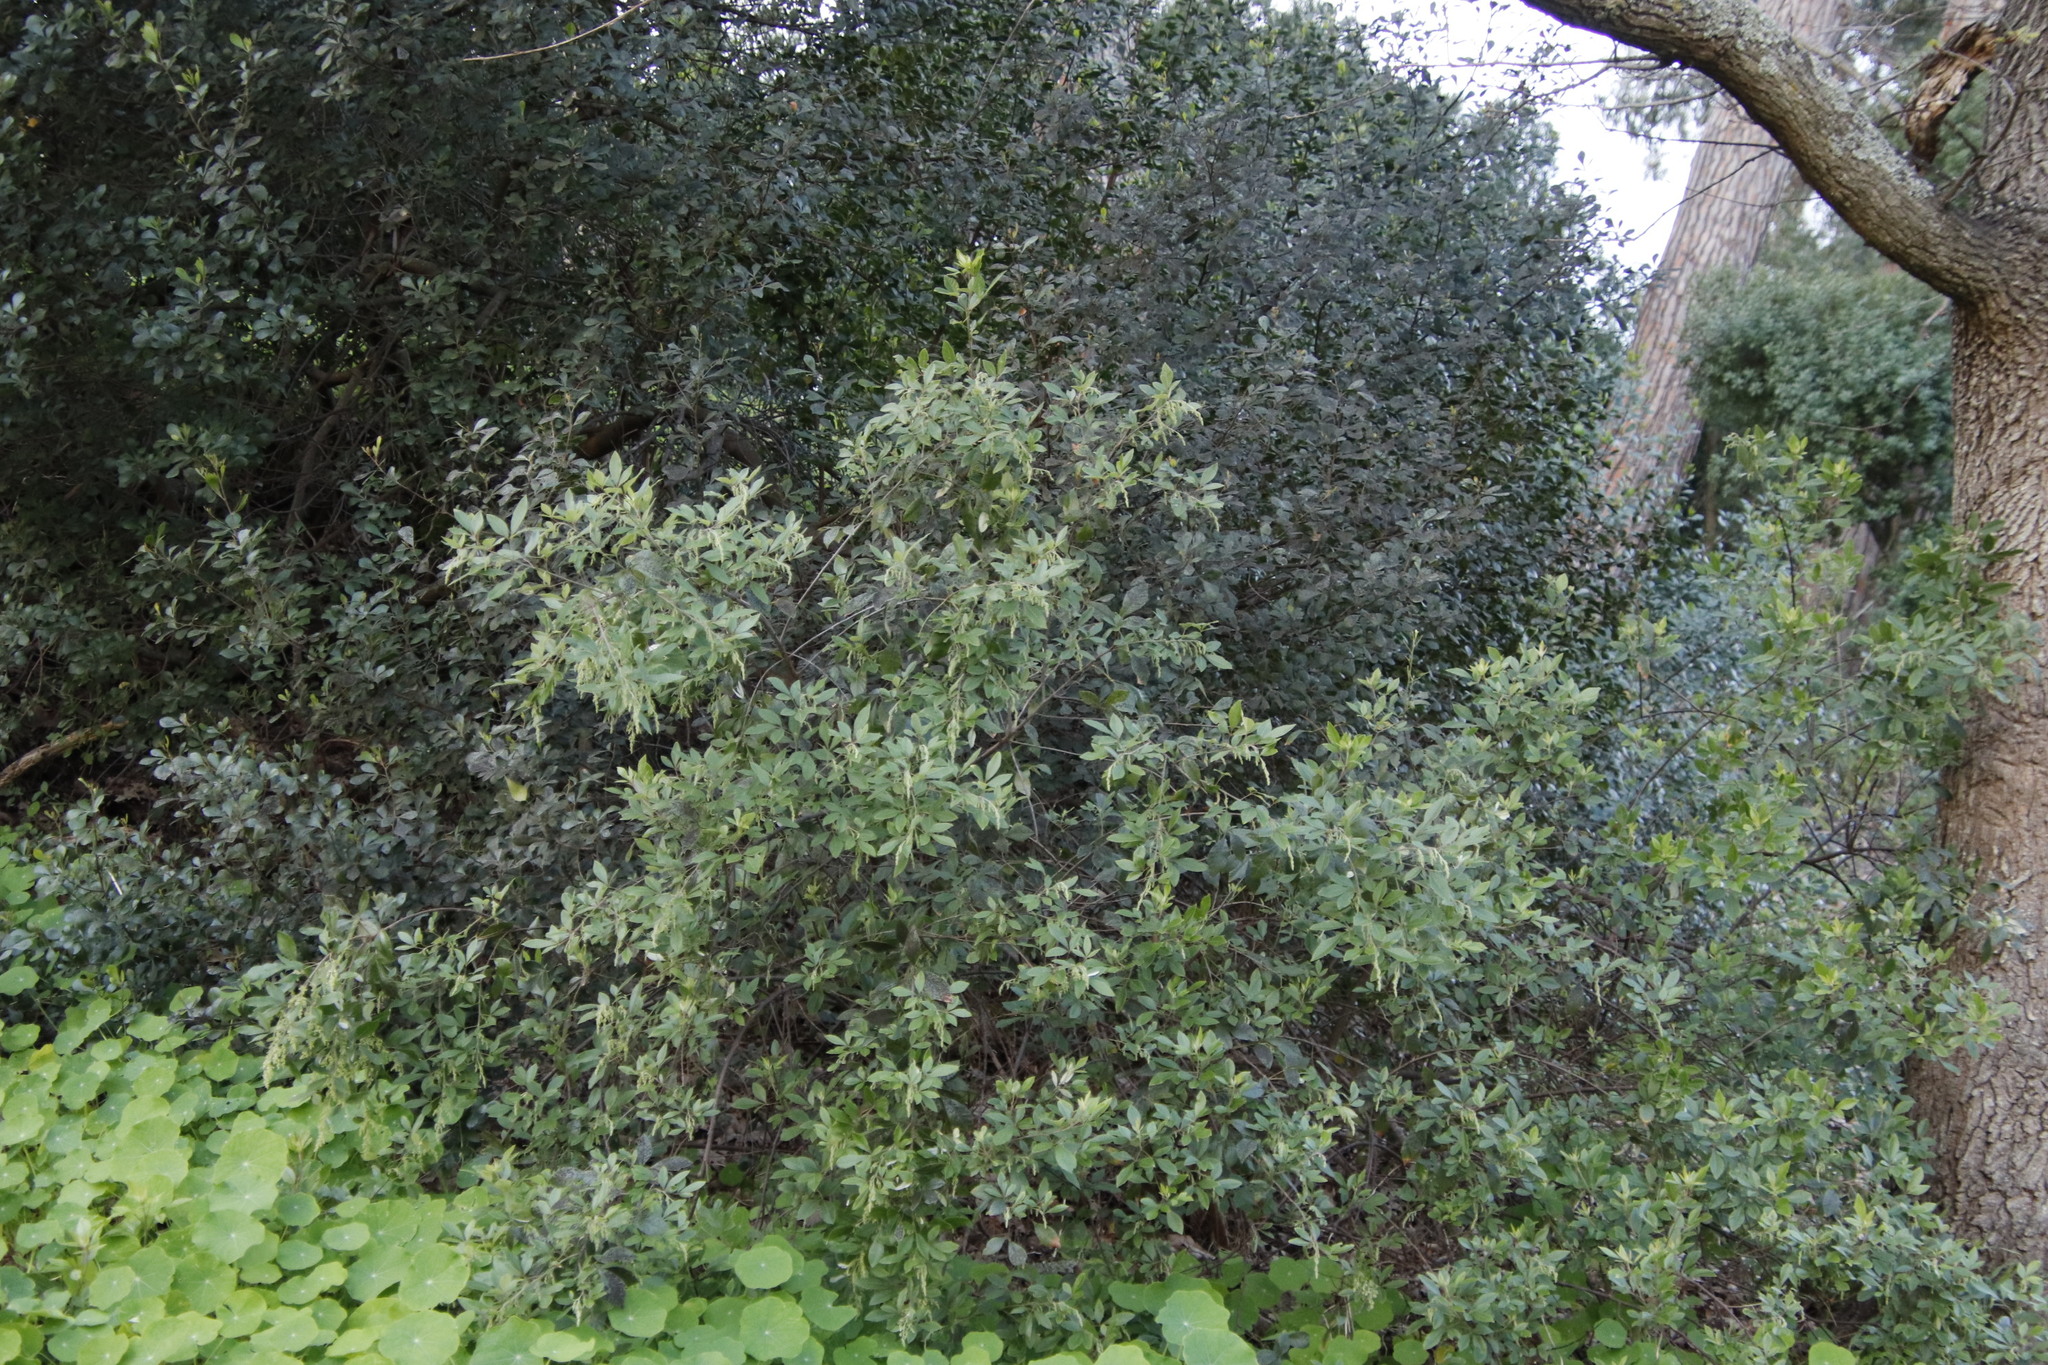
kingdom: Plantae
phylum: Tracheophyta
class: Magnoliopsida
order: Sapindales
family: Anacardiaceae
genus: Searsia
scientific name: Searsia tomentosa
